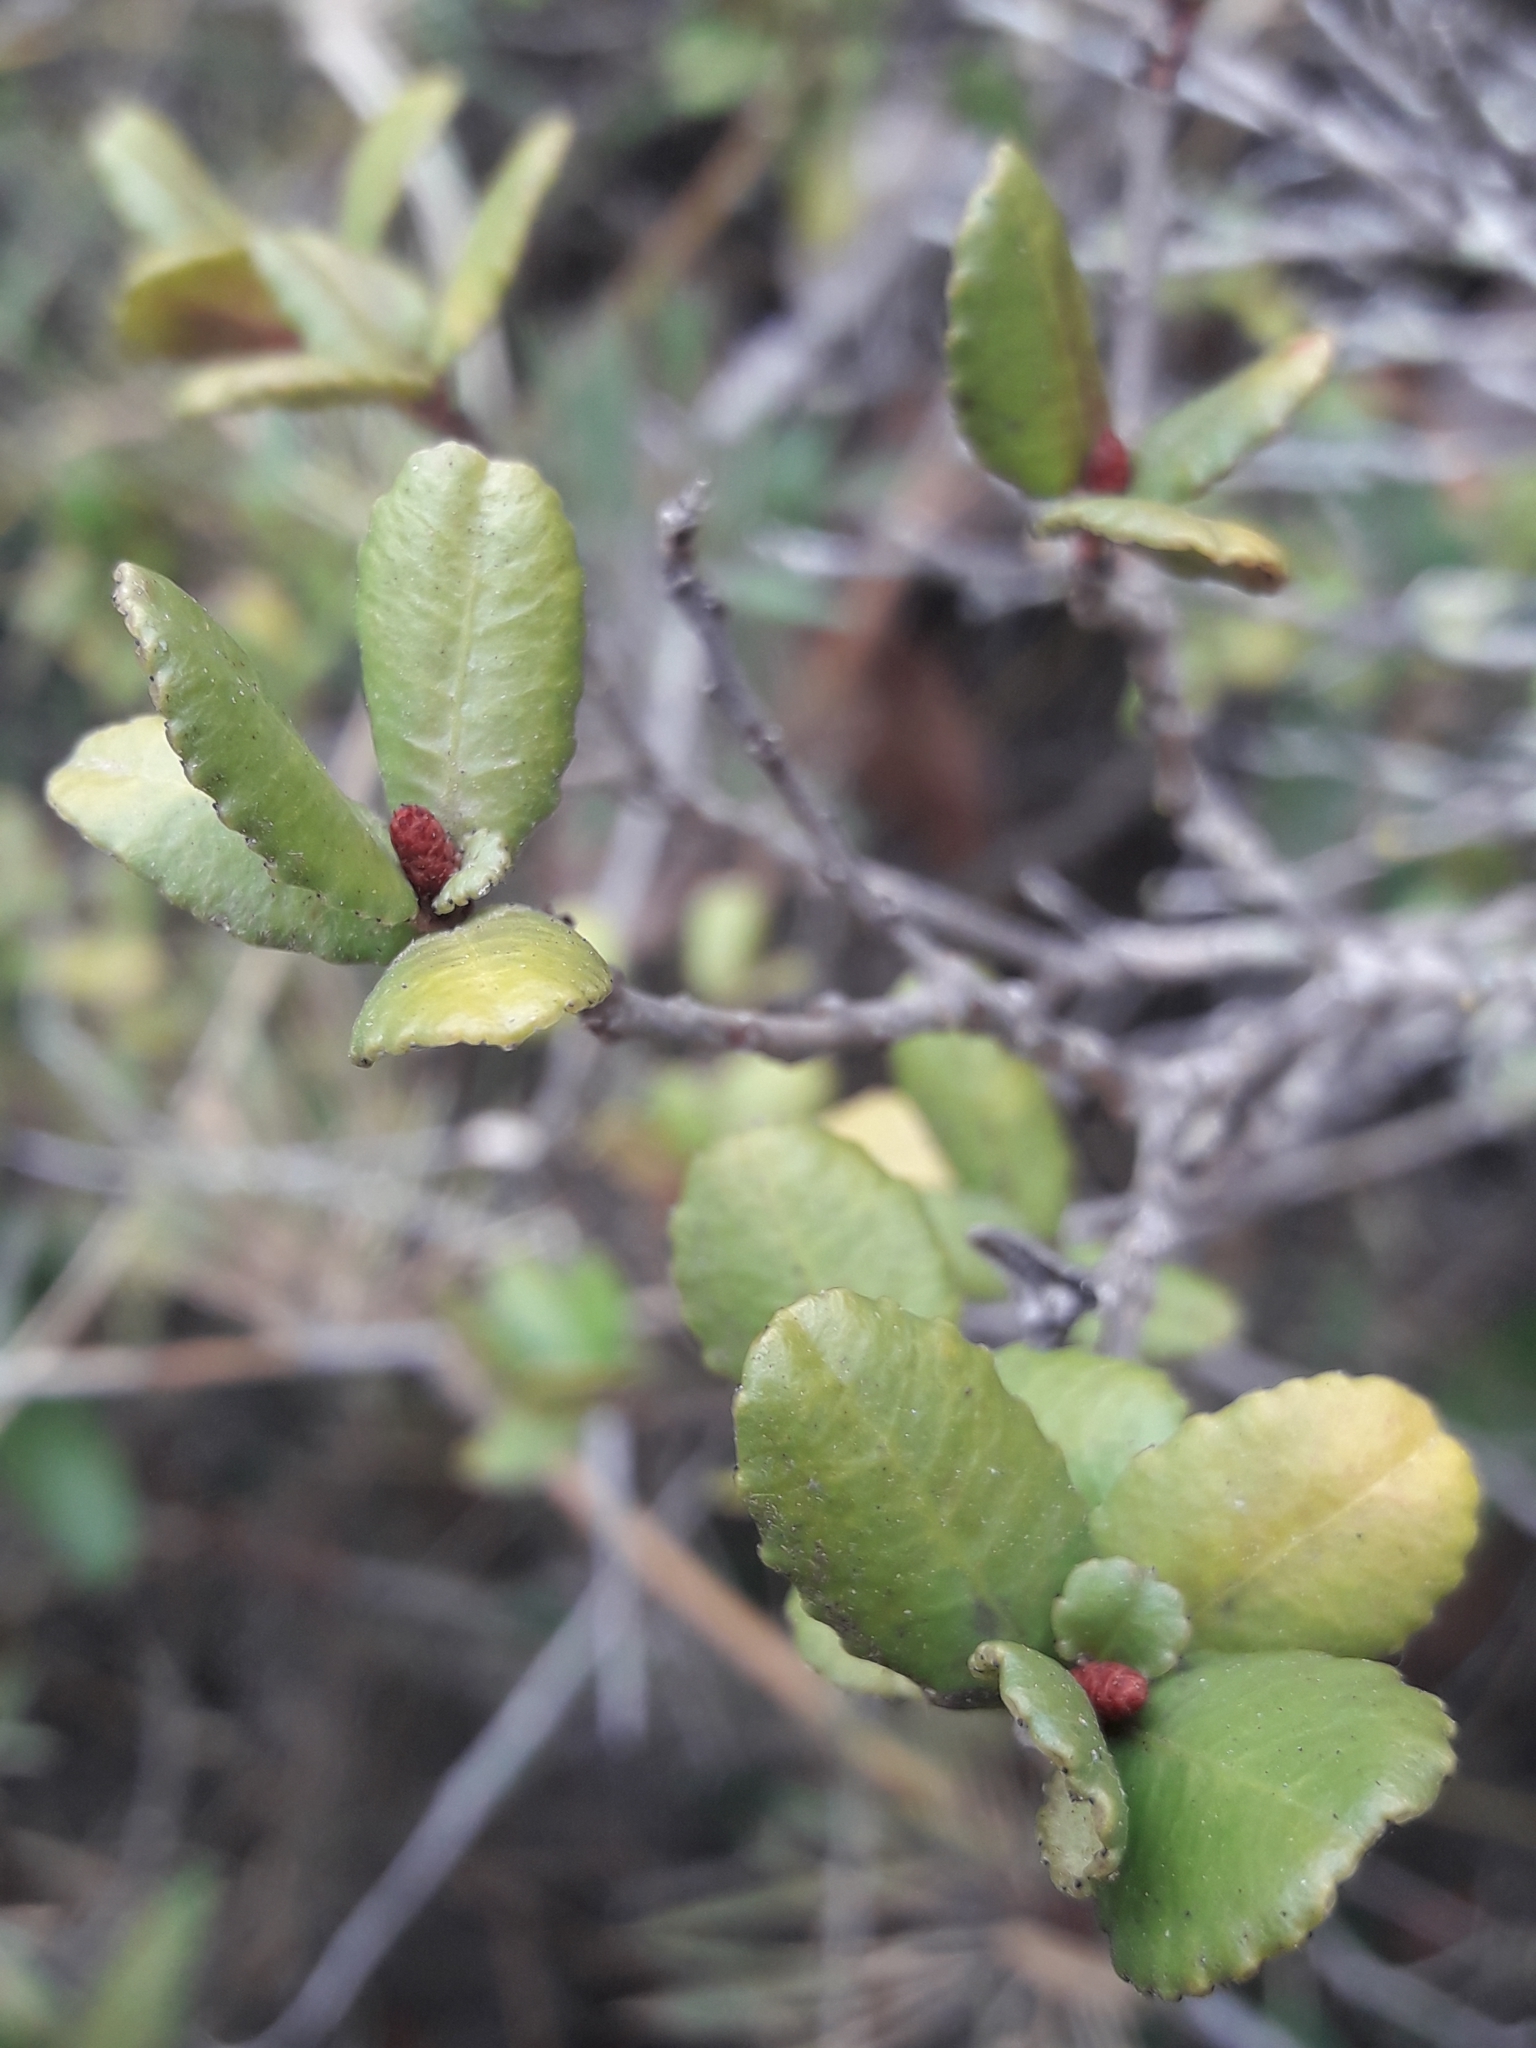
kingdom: Plantae
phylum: Tracheophyta
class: Magnoliopsida
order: Malpighiales
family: Euphorbiaceae
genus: Adenopeltis
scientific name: Adenopeltis serrata
